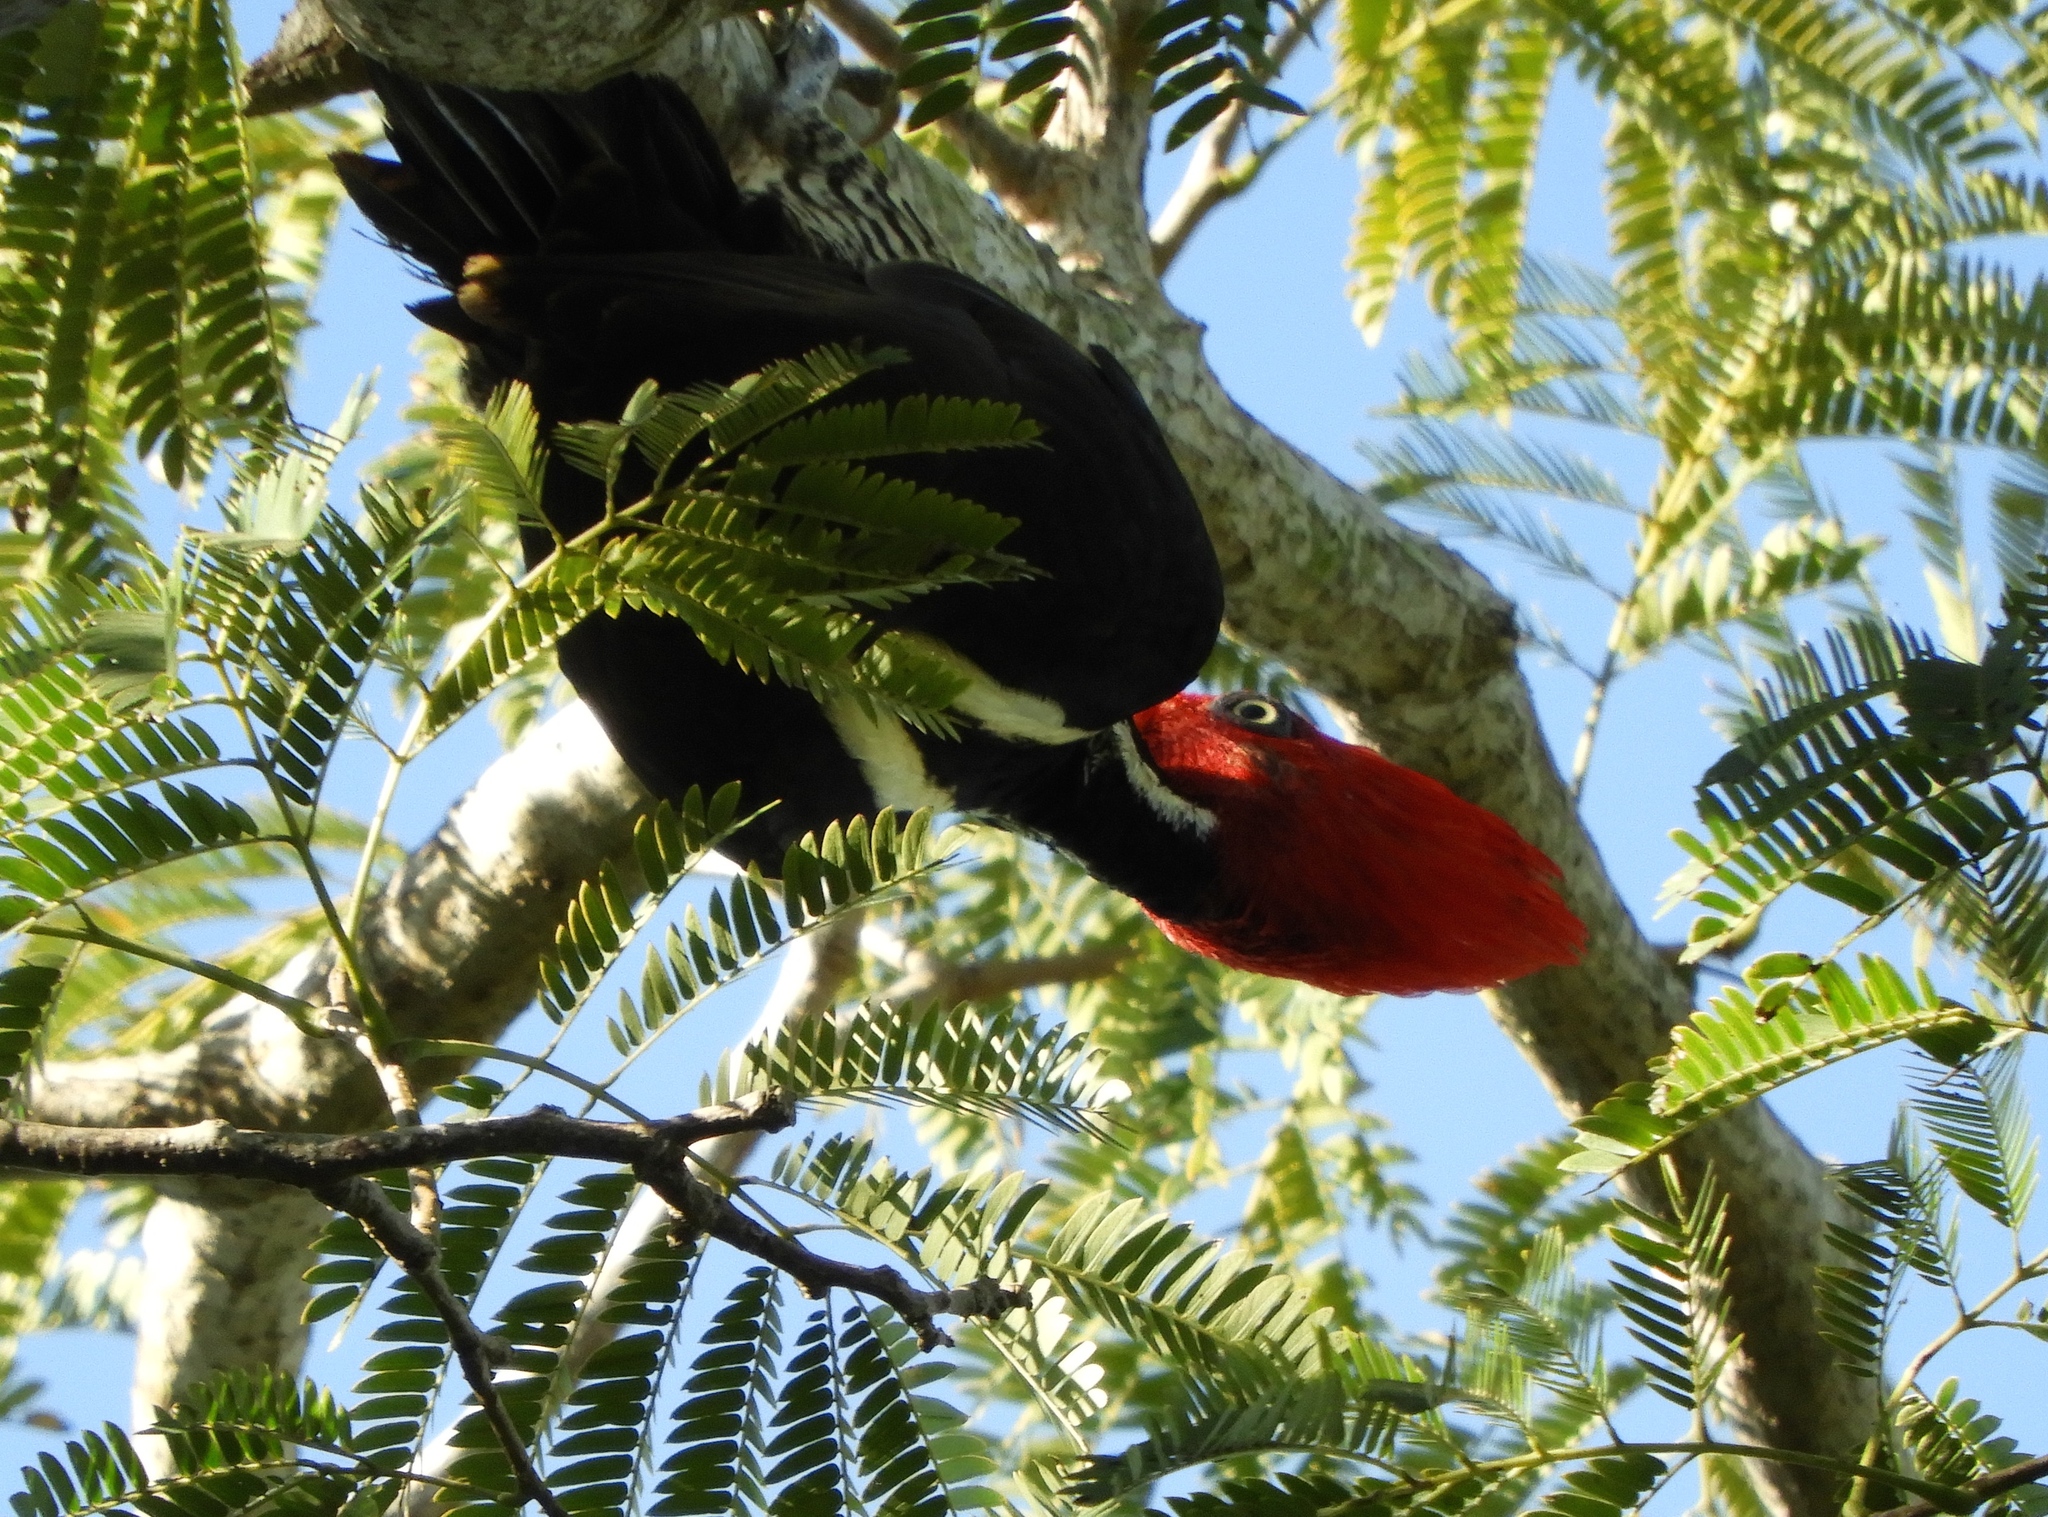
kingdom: Animalia
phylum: Chordata
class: Aves
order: Piciformes
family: Picidae
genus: Campephilus
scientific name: Campephilus guatemalensis
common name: Pale-billed woodpecker
